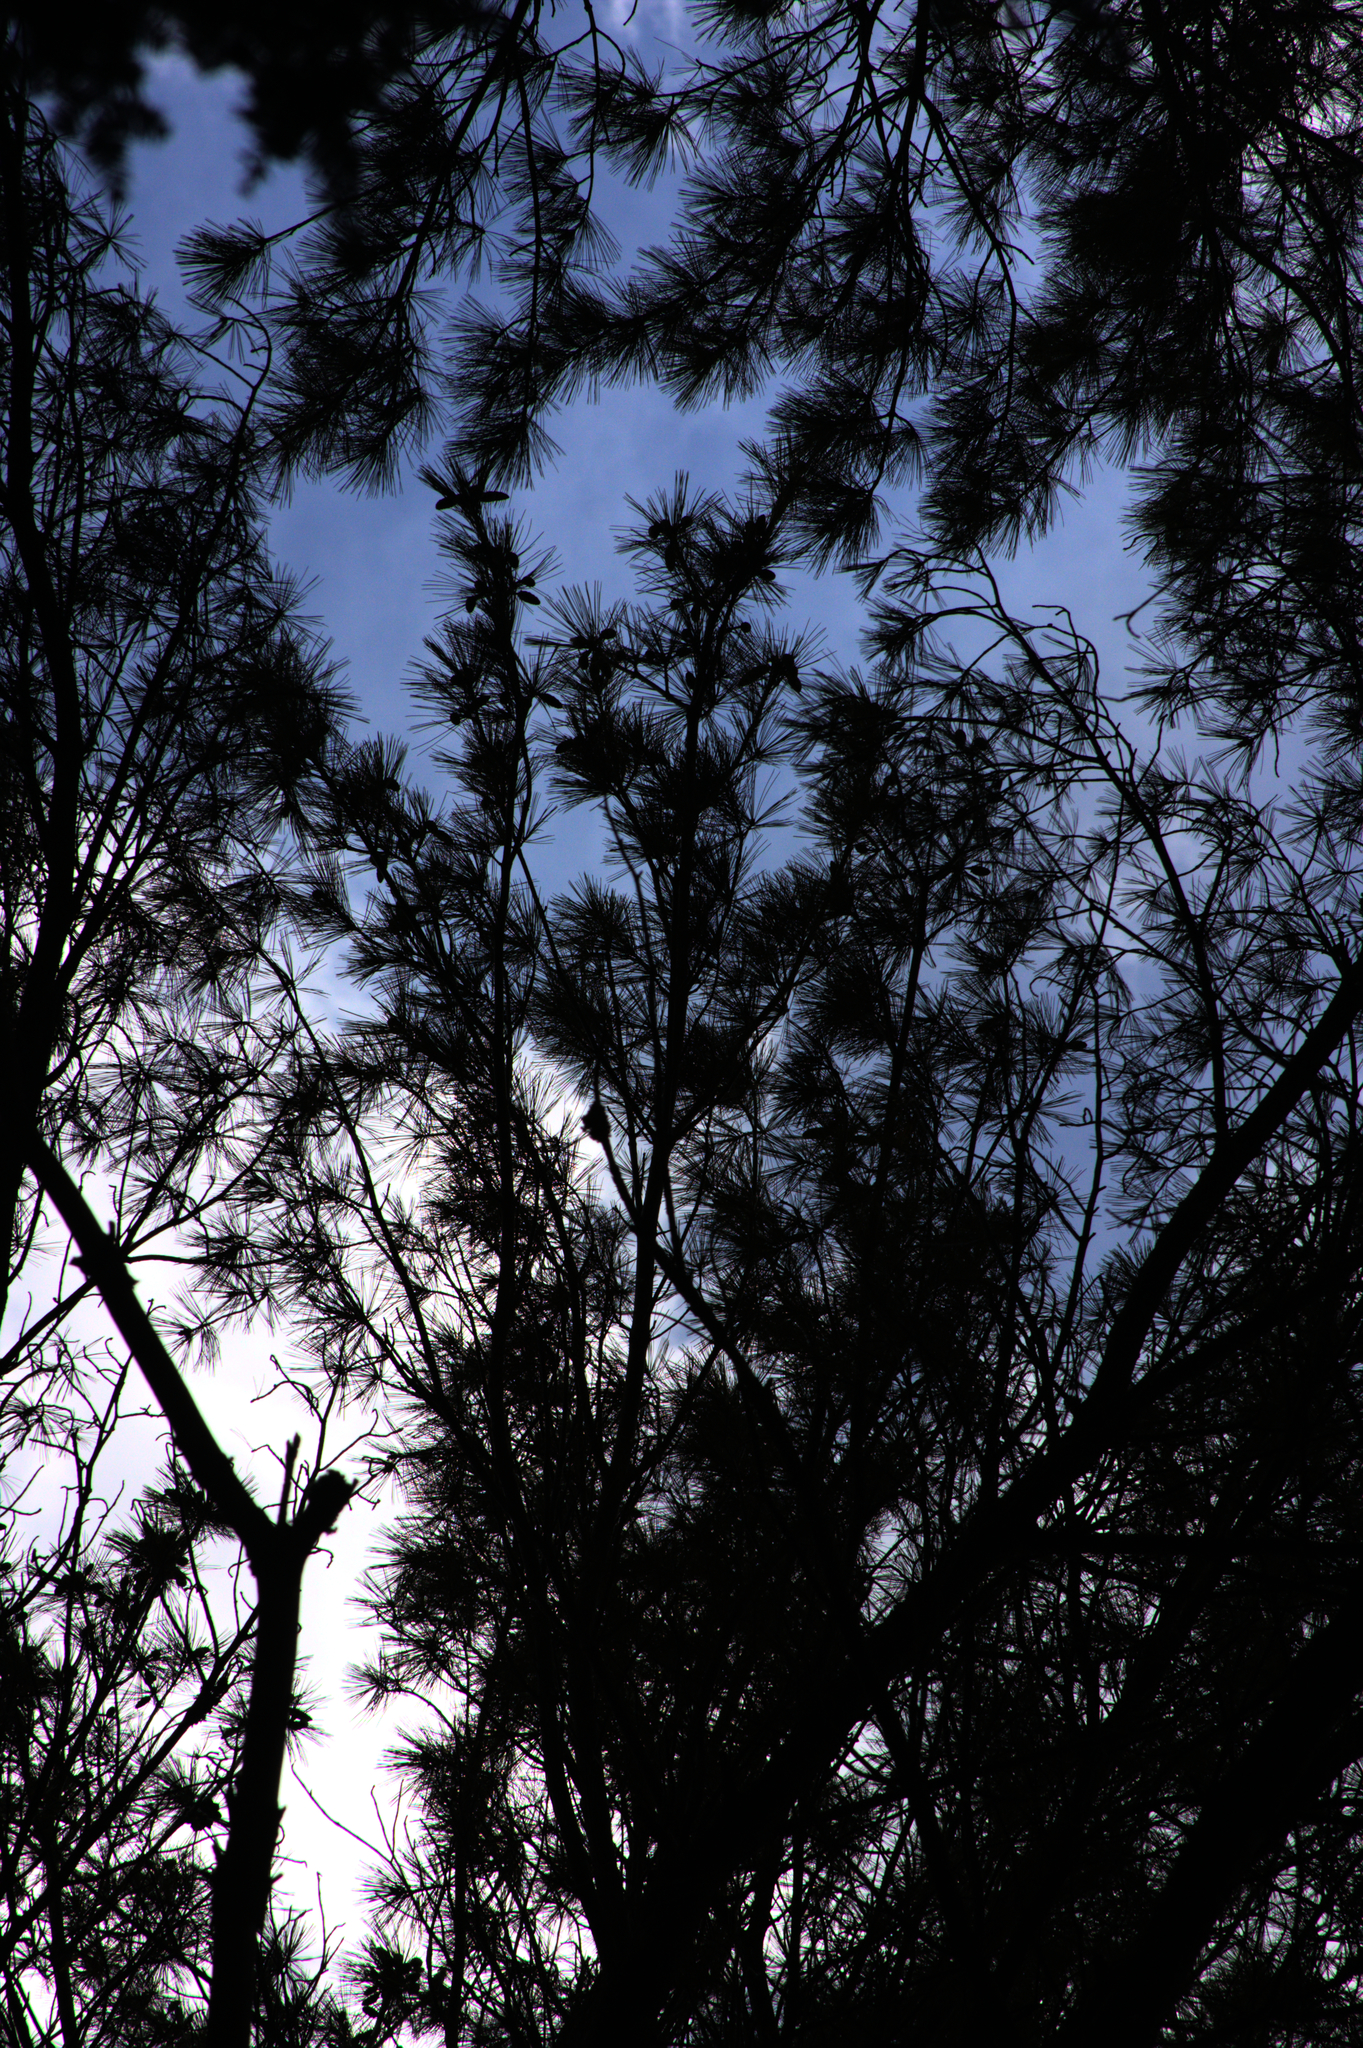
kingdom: Plantae
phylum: Tracheophyta
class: Pinopsida
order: Pinales
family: Pinaceae
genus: Pinus
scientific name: Pinus strobus
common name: Weymouth pine
